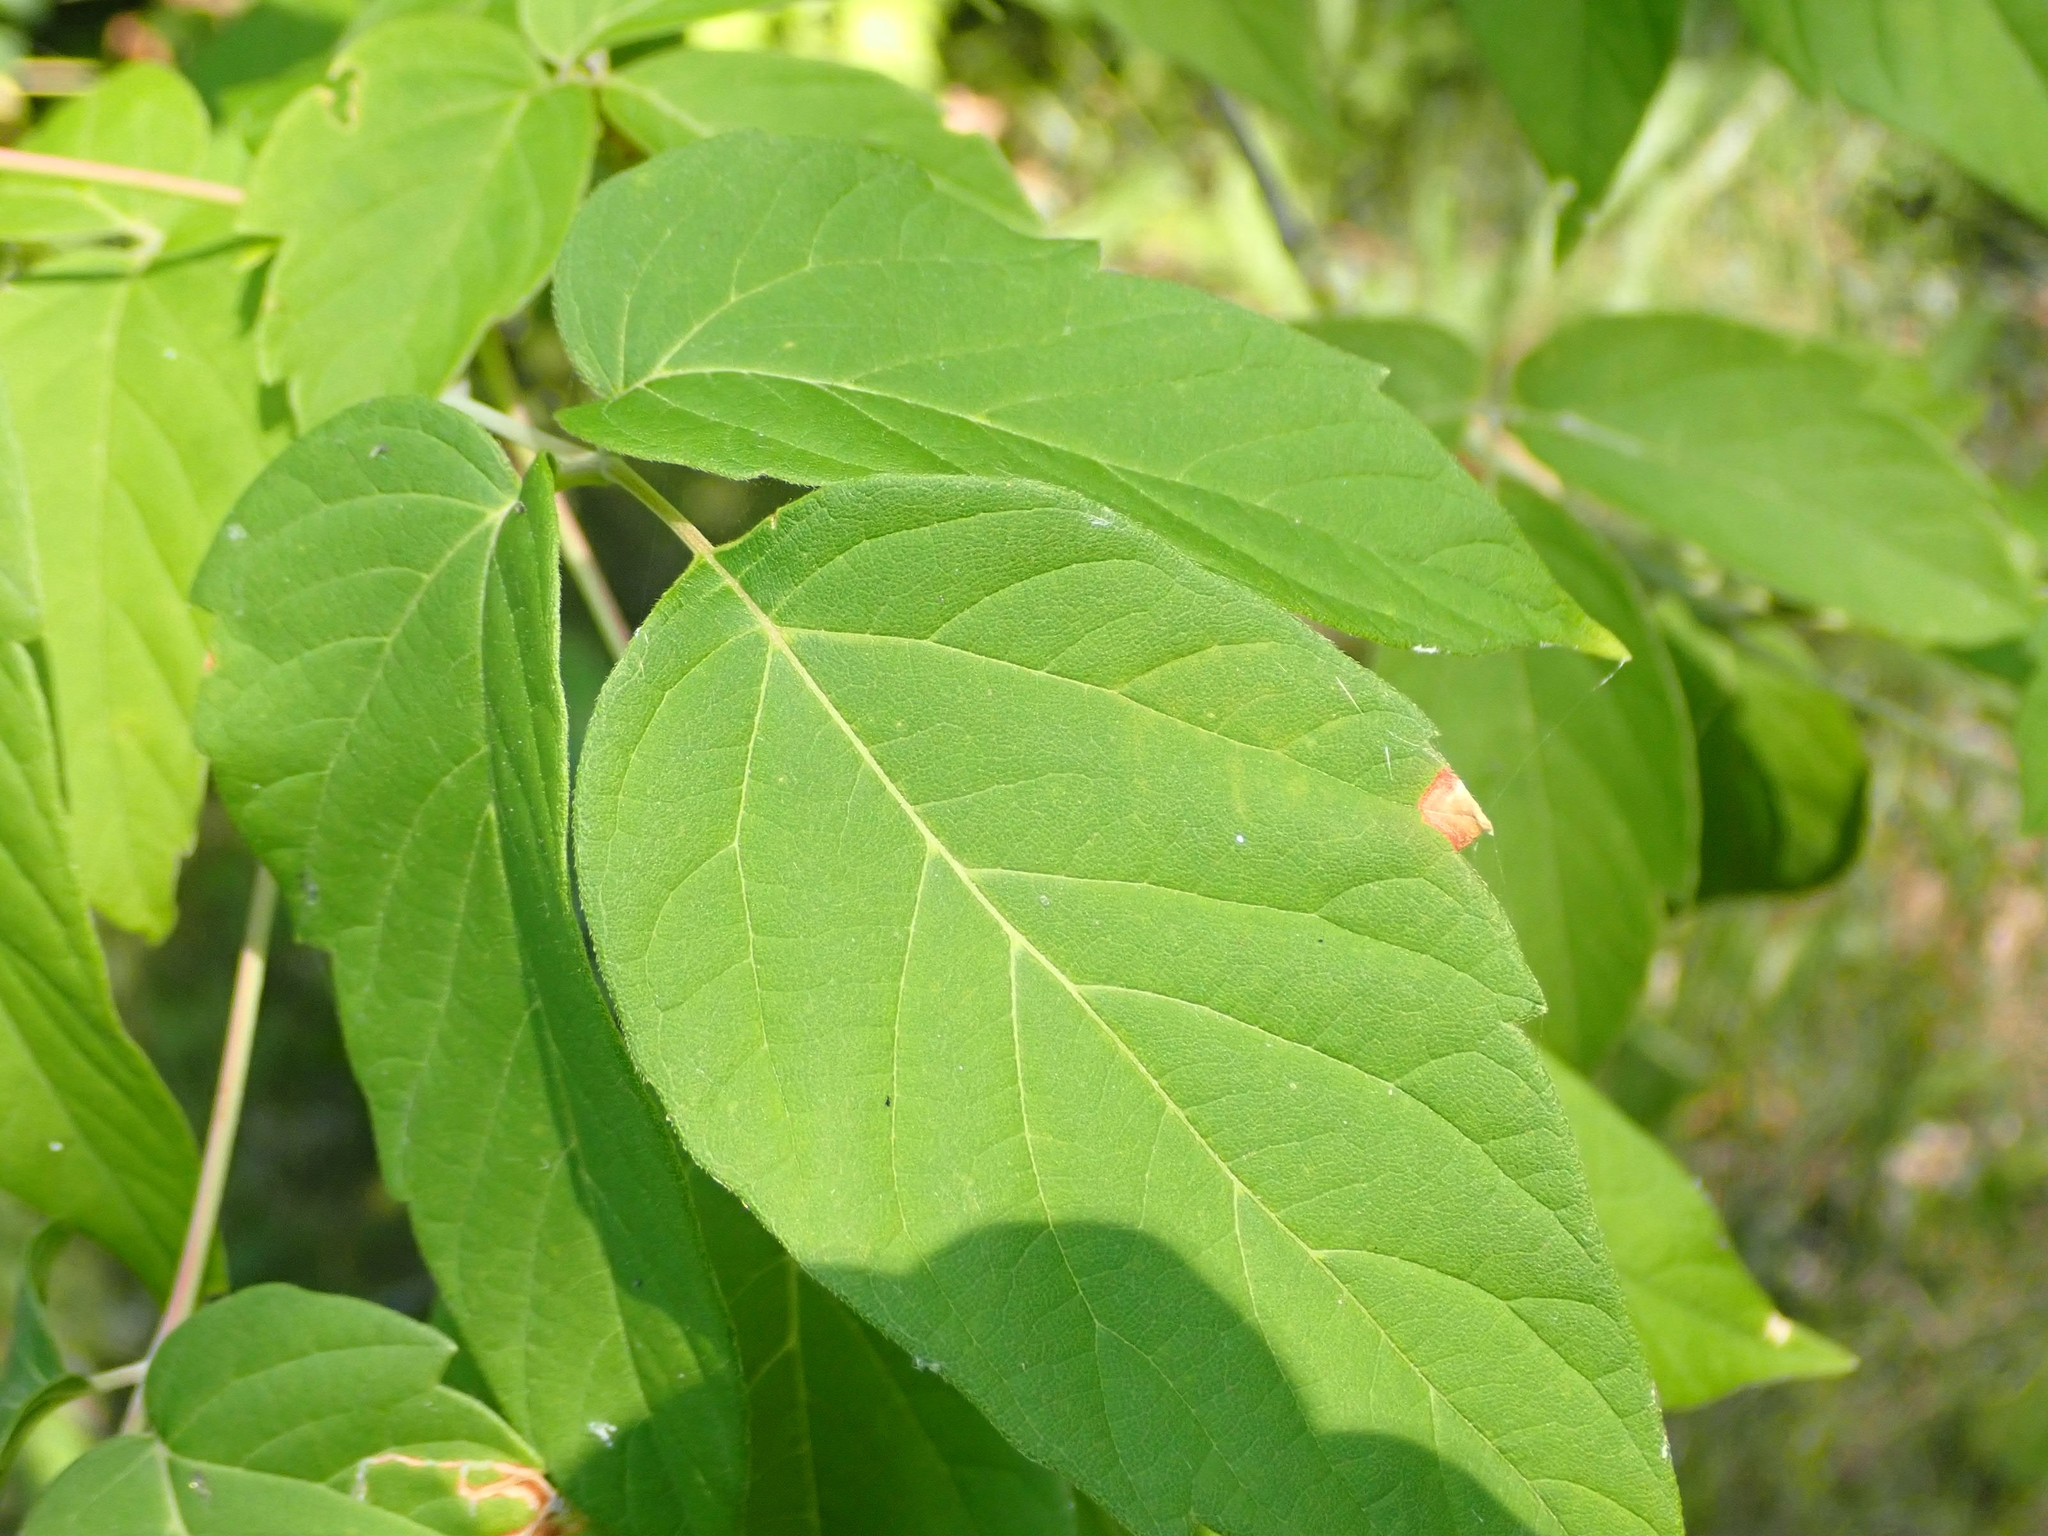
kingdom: Plantae
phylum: Tracheophyta
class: Magnoliopsida
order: Sapindales
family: Sapindaceae
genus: Acer
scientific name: Acer negundo
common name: Ashleaf maple
